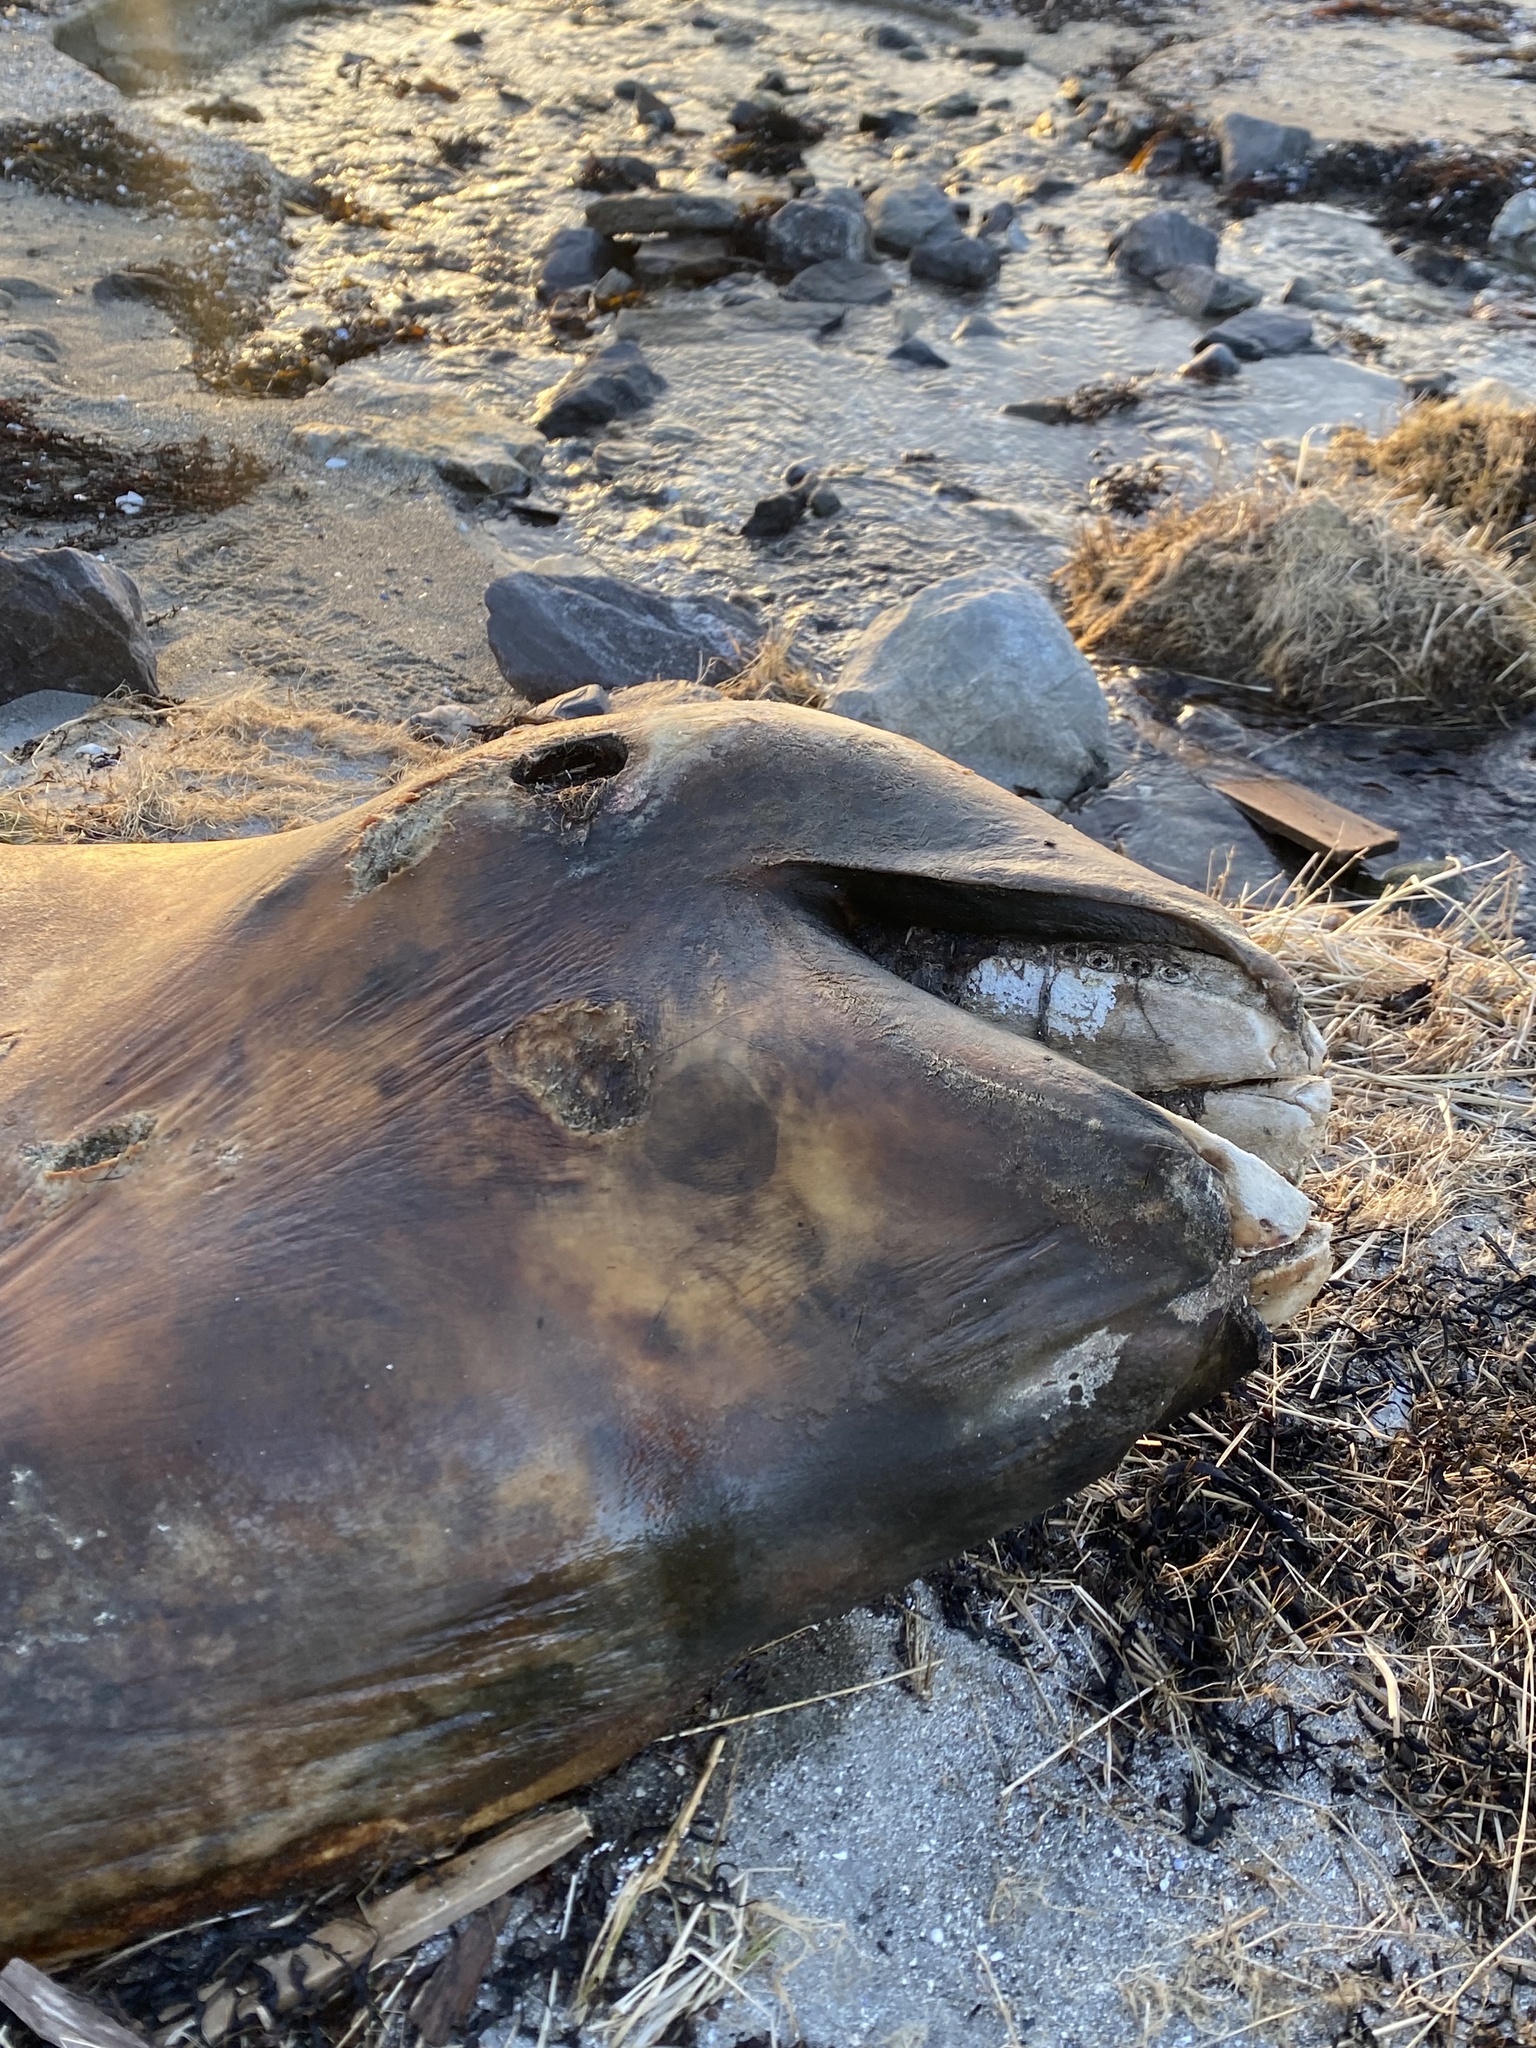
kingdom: Animalia
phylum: Chordata
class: Mammalia
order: Cetacea
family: Delphinidae
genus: Globicephala
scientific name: Globicephala melas
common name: Long-finned pilot whale
